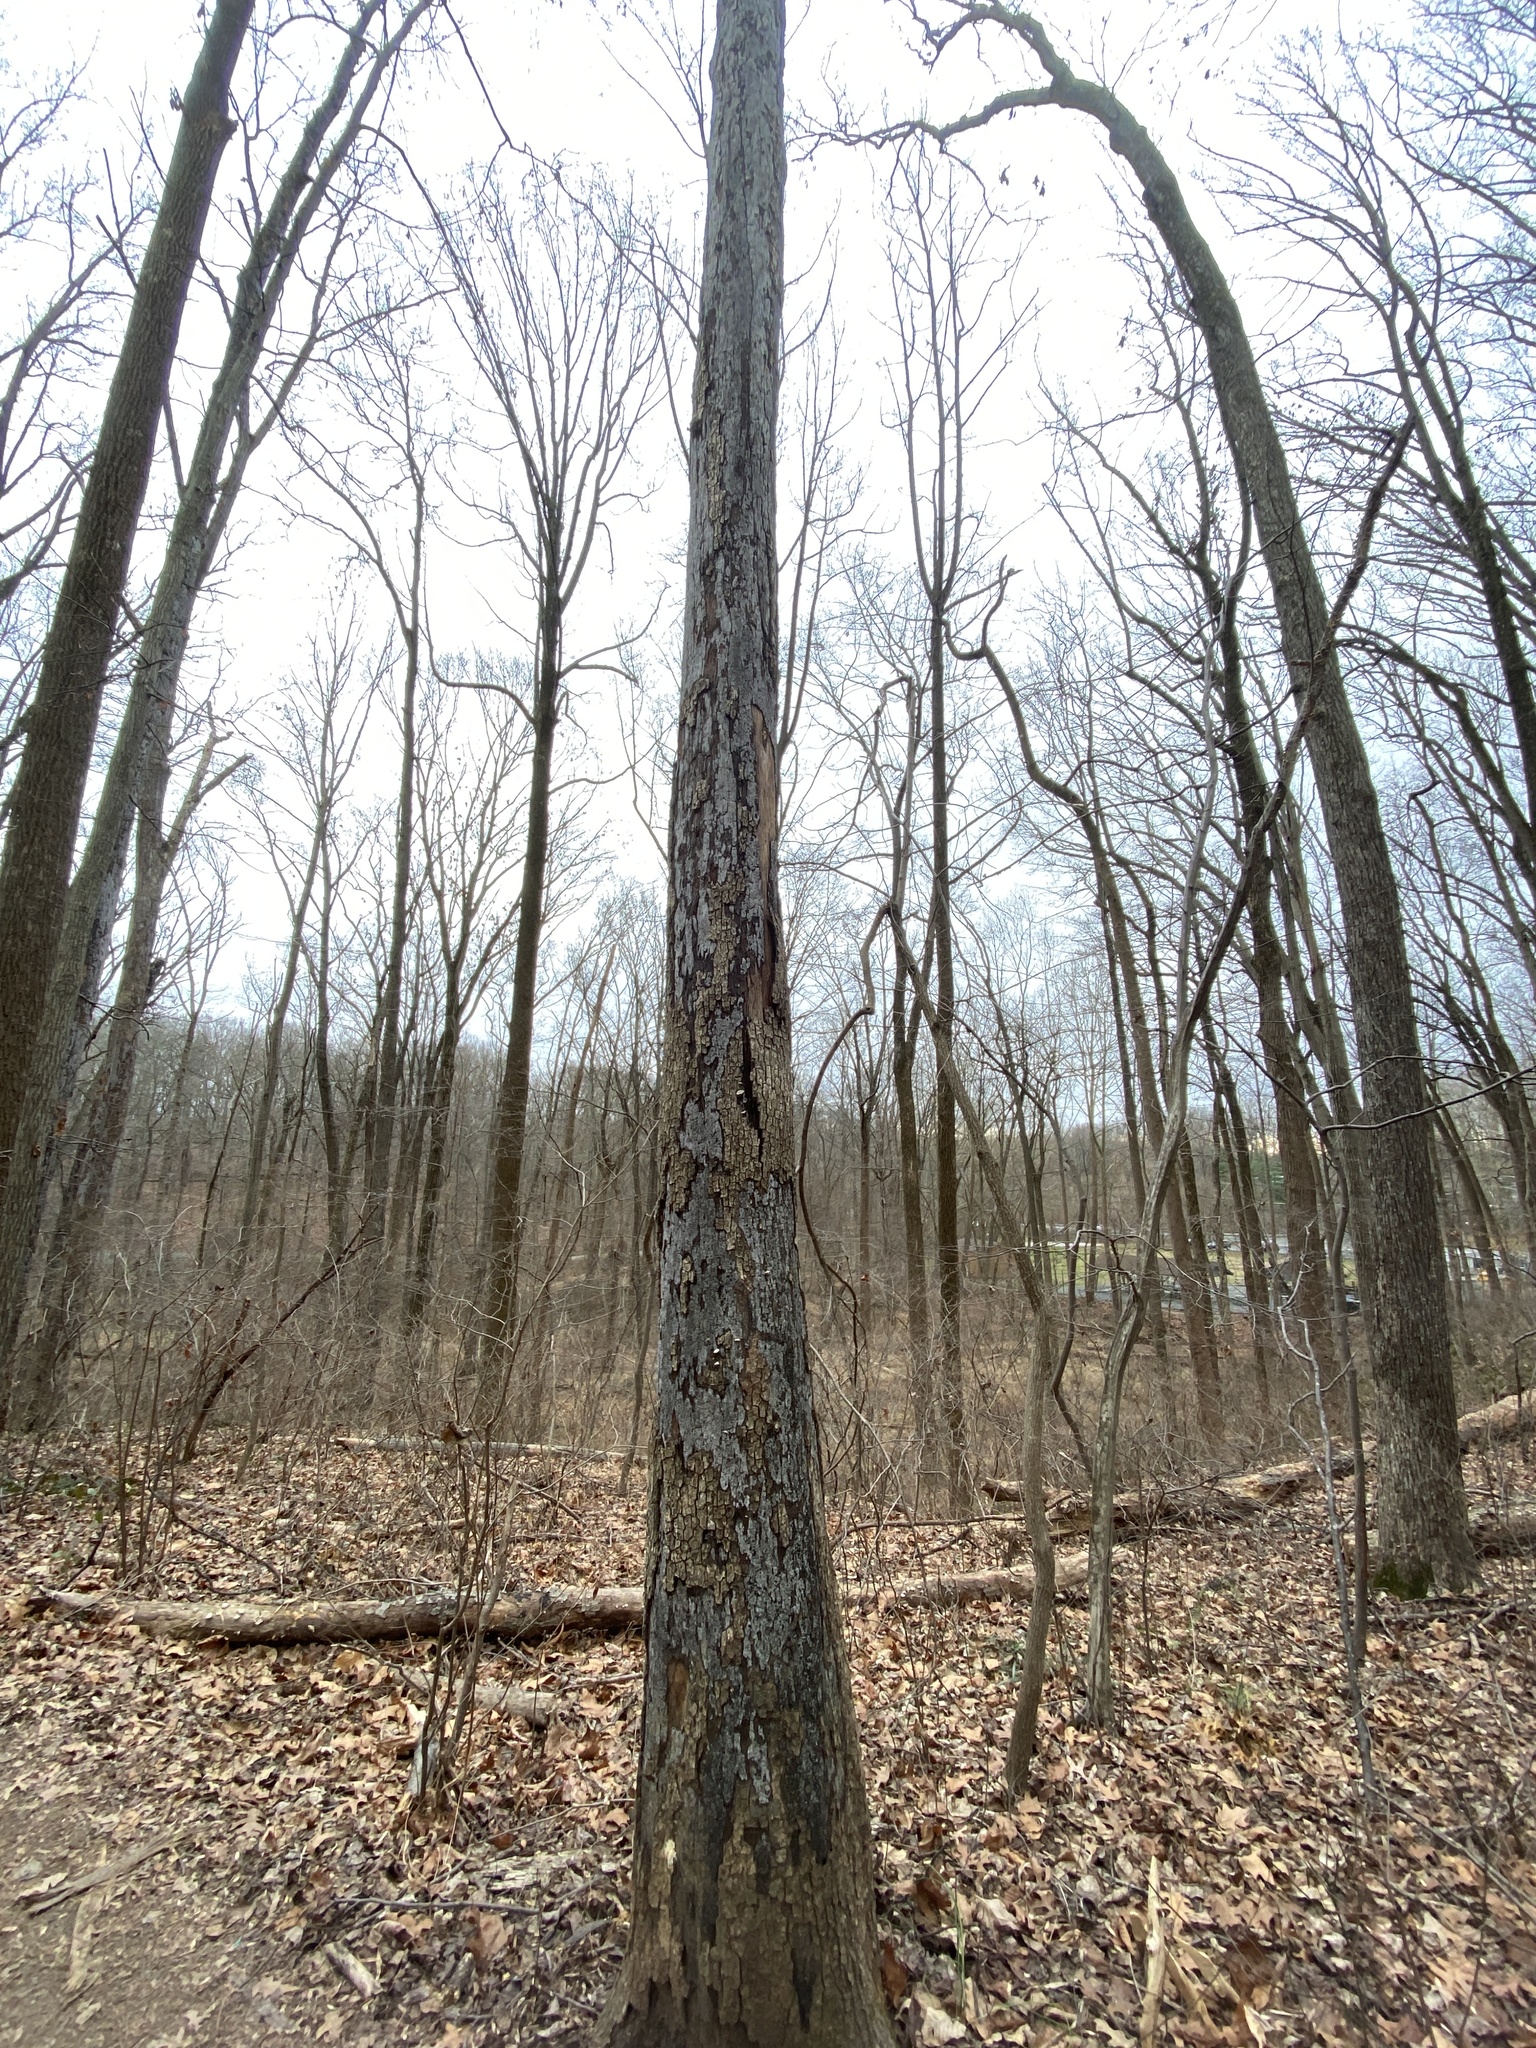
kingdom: Fungi
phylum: Ascomycota
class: Sordariomycetes
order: Xylariales
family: Graphostromataceae
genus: Biscogniauxia
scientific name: Biscogniauxia atropunctata
